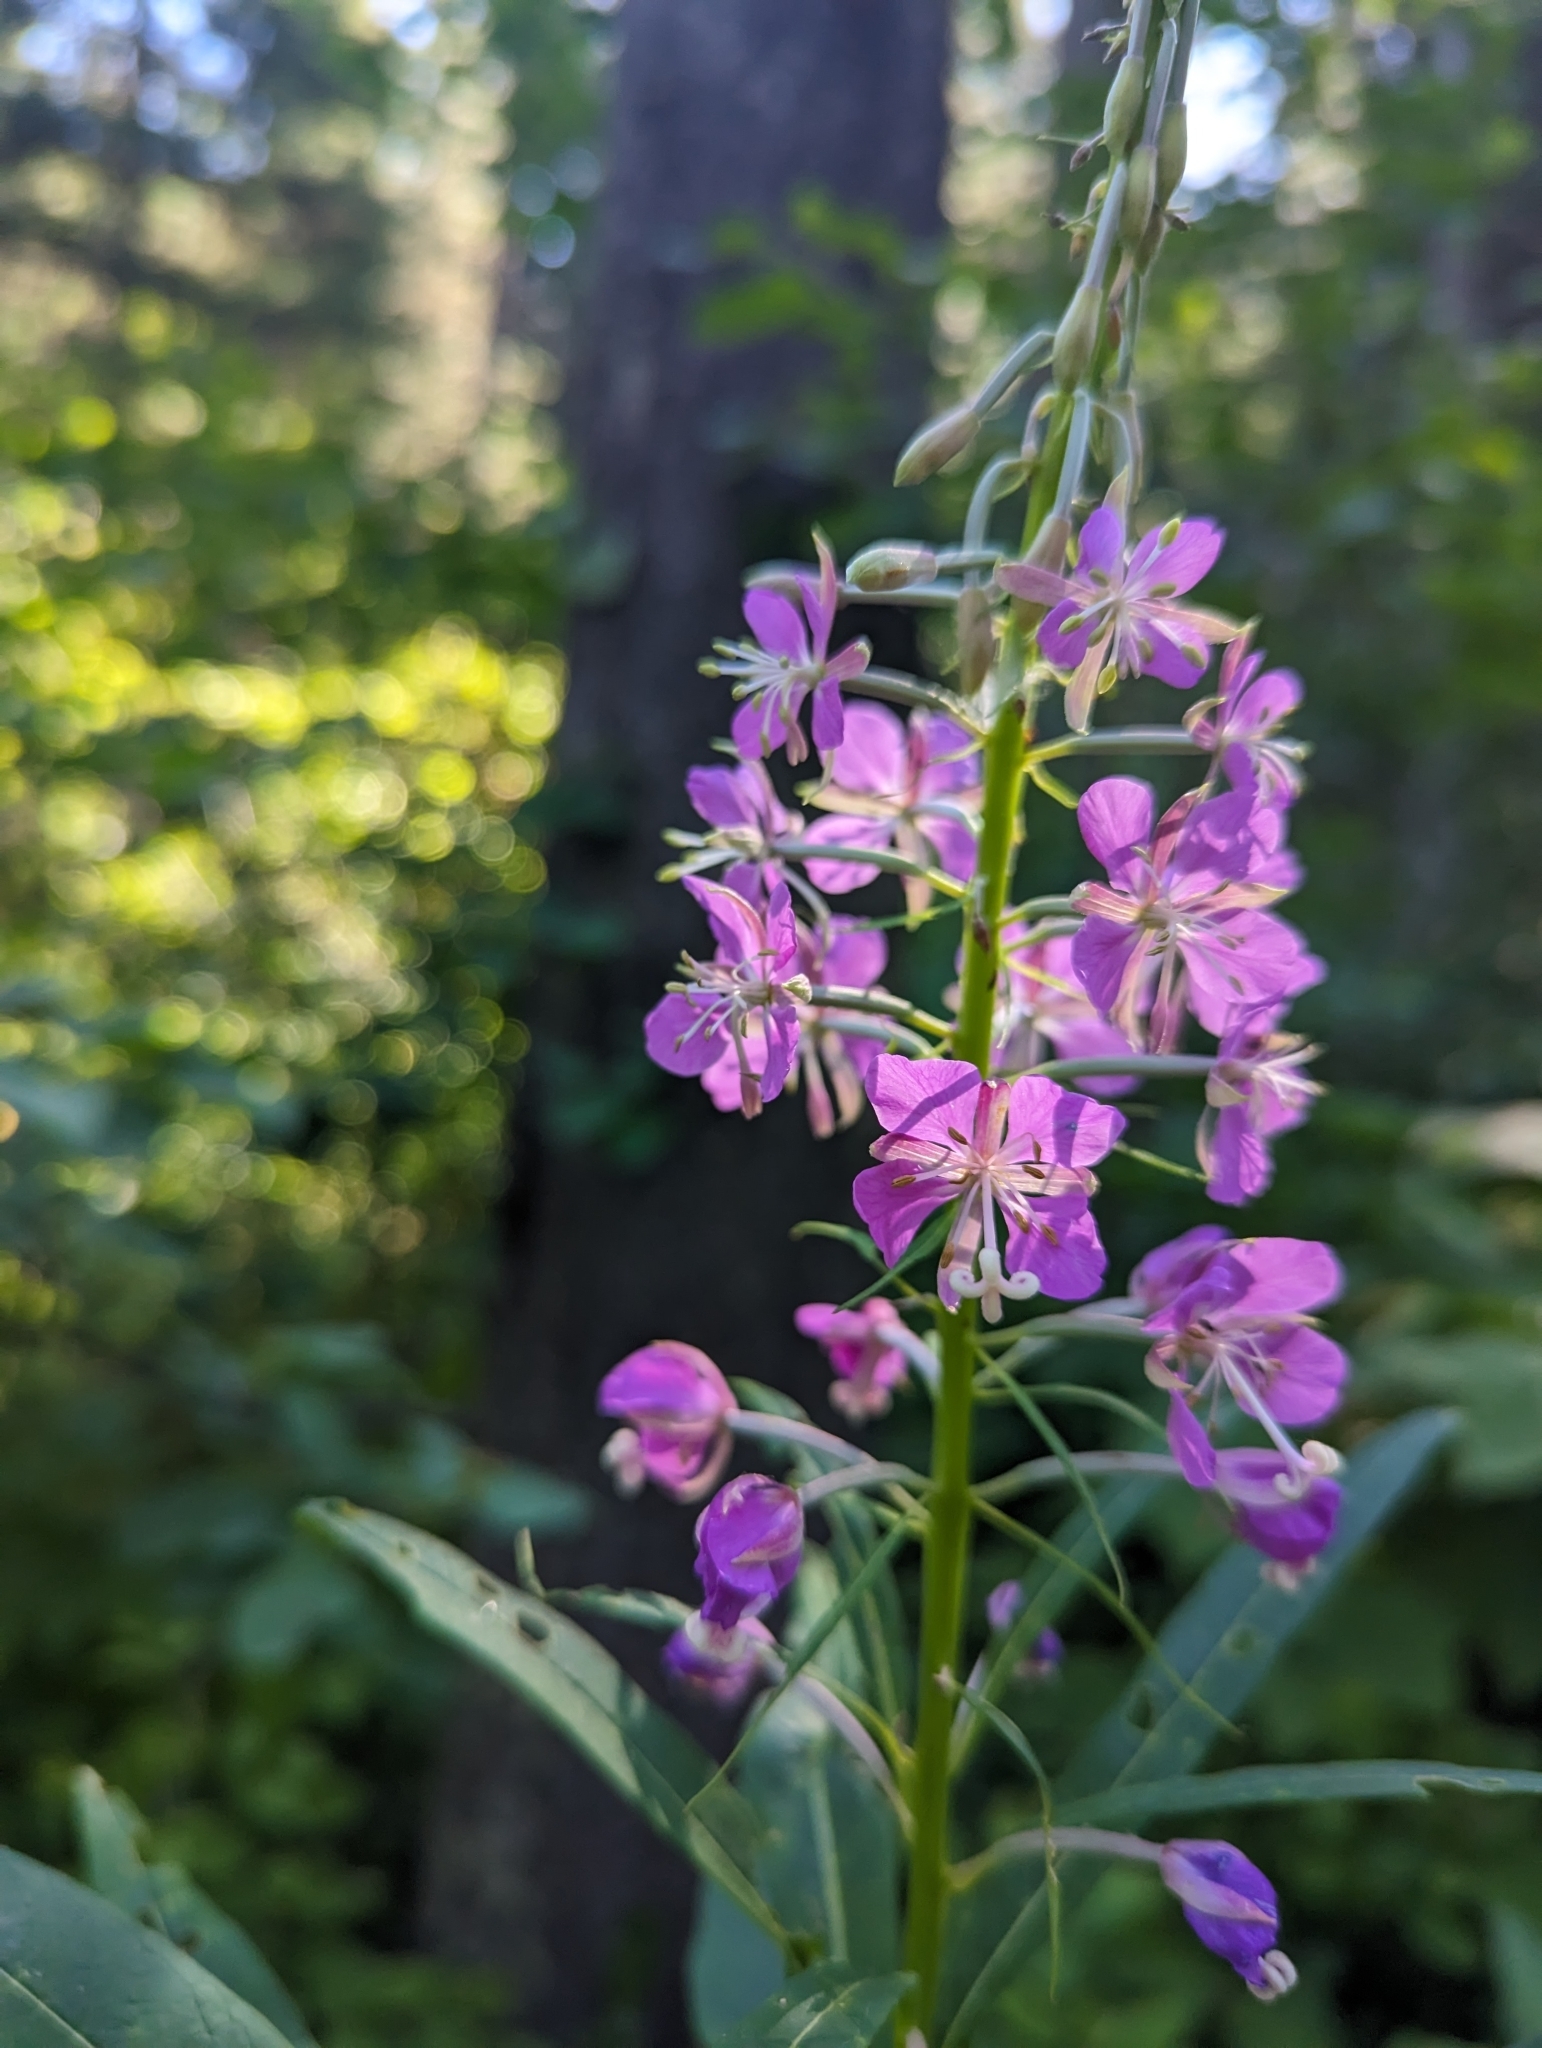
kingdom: Plantae
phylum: Tracheophyta
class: Magnoliopsida
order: Myrtales
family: Onagraceae
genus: Chamaenerion
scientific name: Chamaenerion angustifolium
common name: Fireweed
